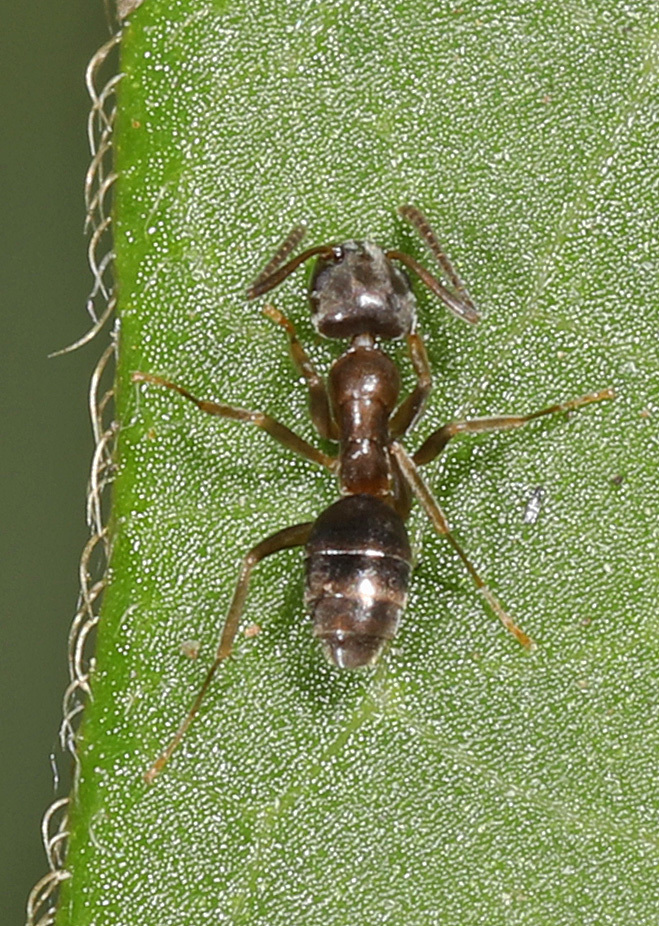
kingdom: Animalia
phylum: Arthropoda
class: Insecta
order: Hymenoptera
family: Formicidae
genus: Tapinoma
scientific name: Tapinoma sessile
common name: Odorous house ant
